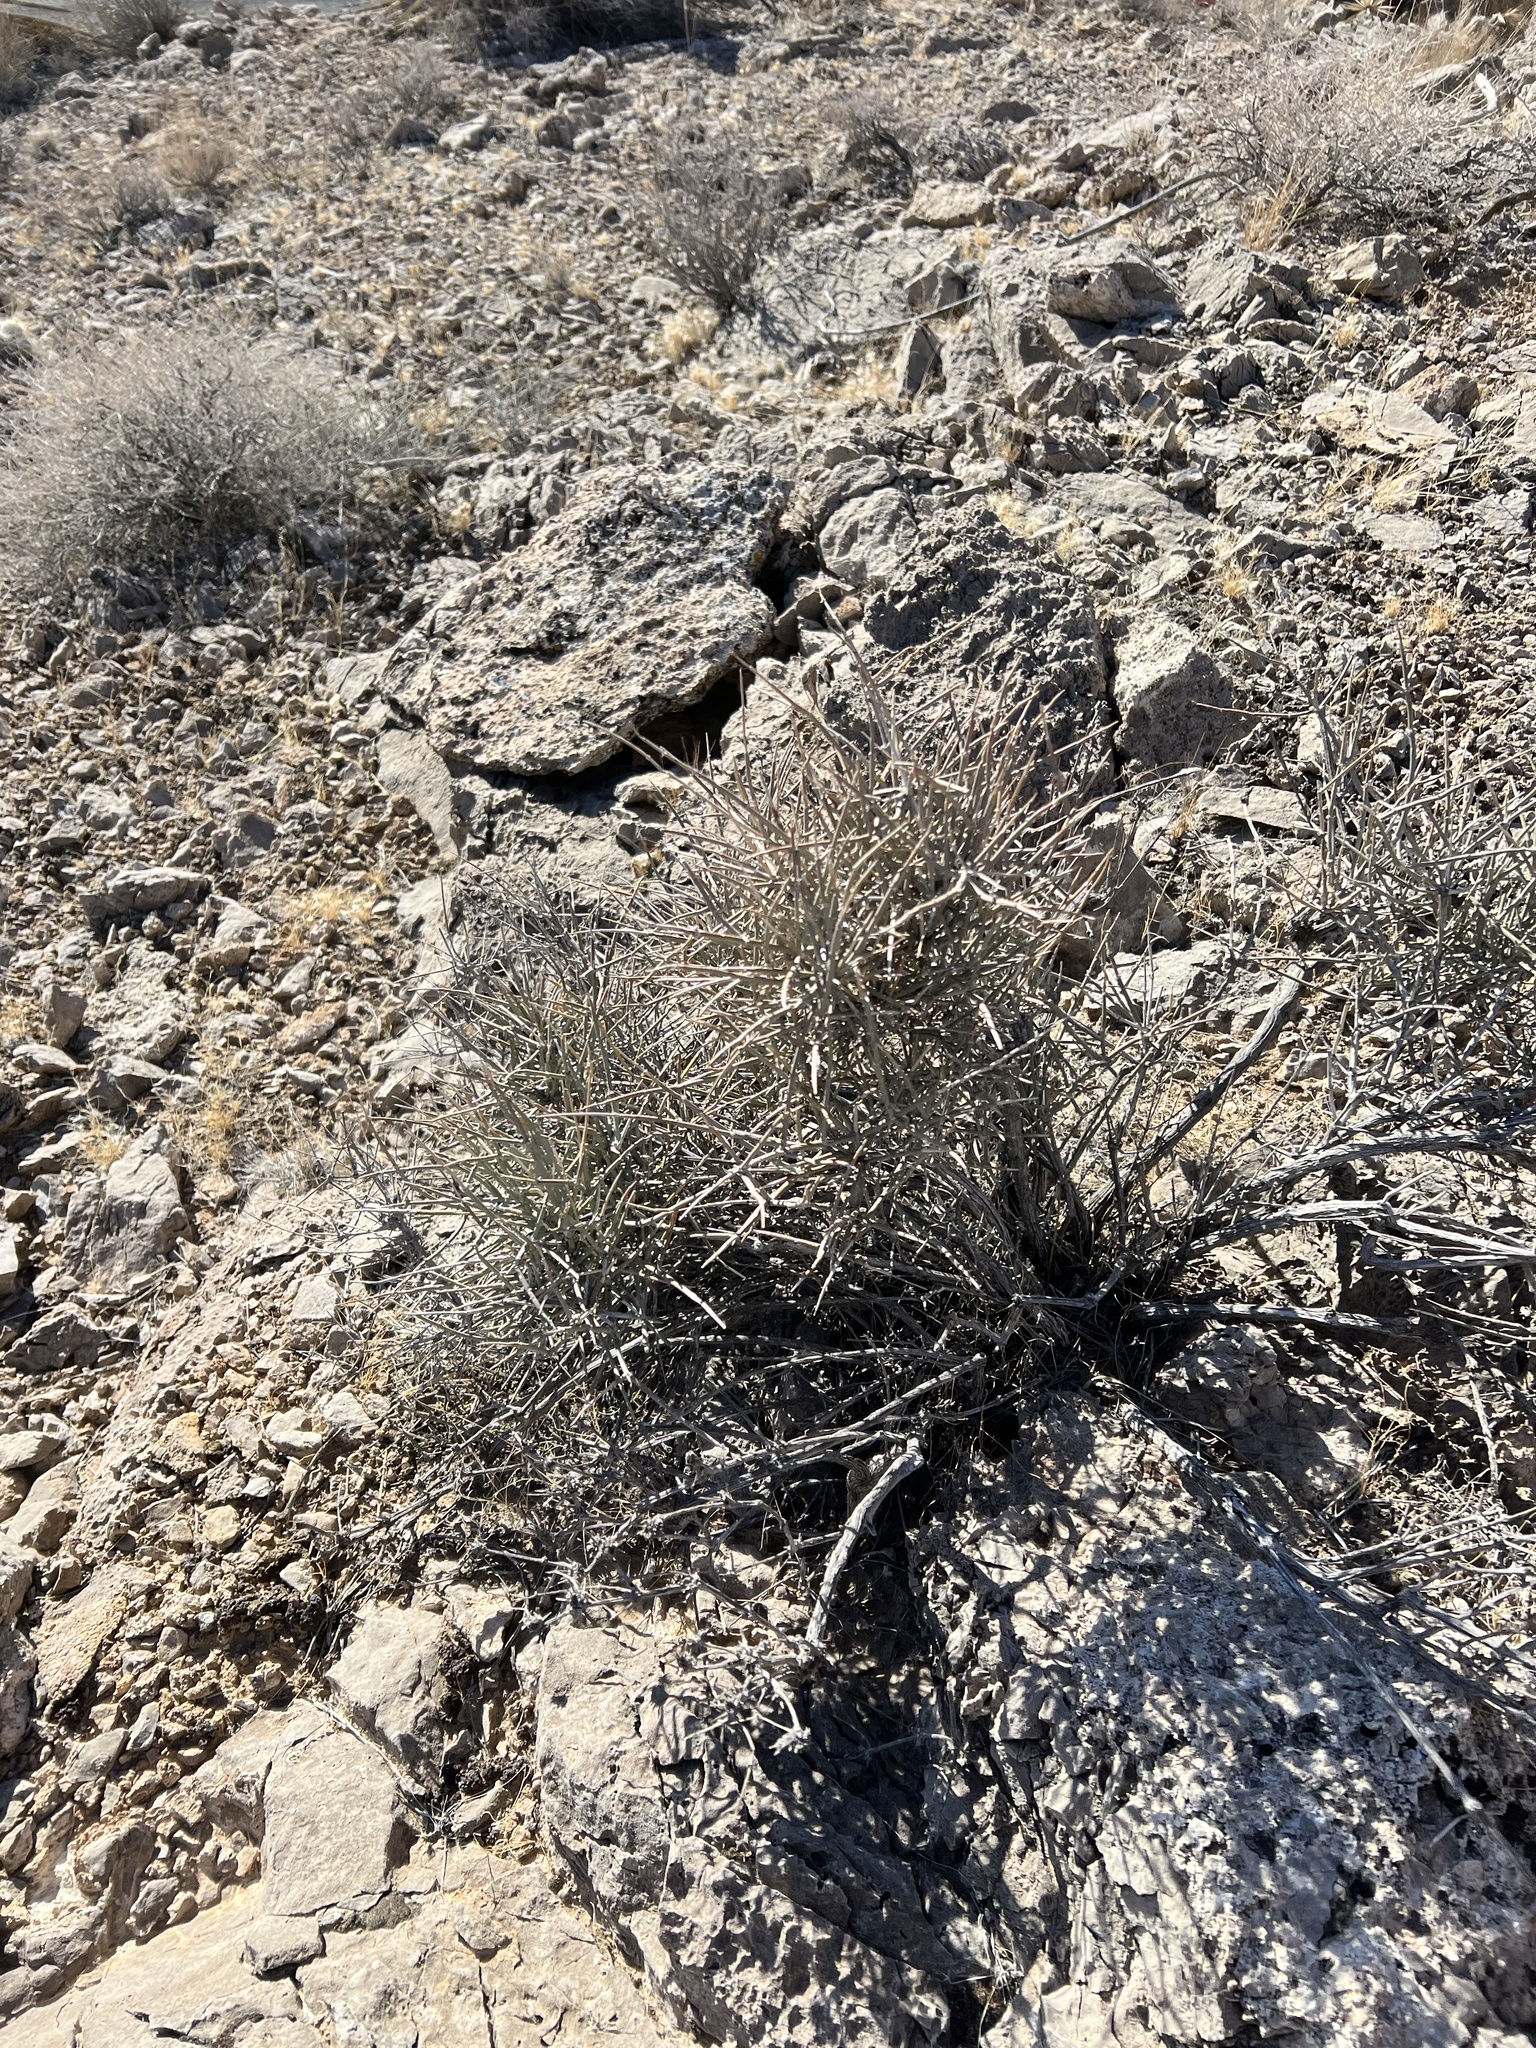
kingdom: Plantae
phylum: Tracheophyta
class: Gnetopsida
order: Ephedrales
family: Ephedraceae
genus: Ephedra
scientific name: Ephedra nevadensis
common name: Gray ephedra
